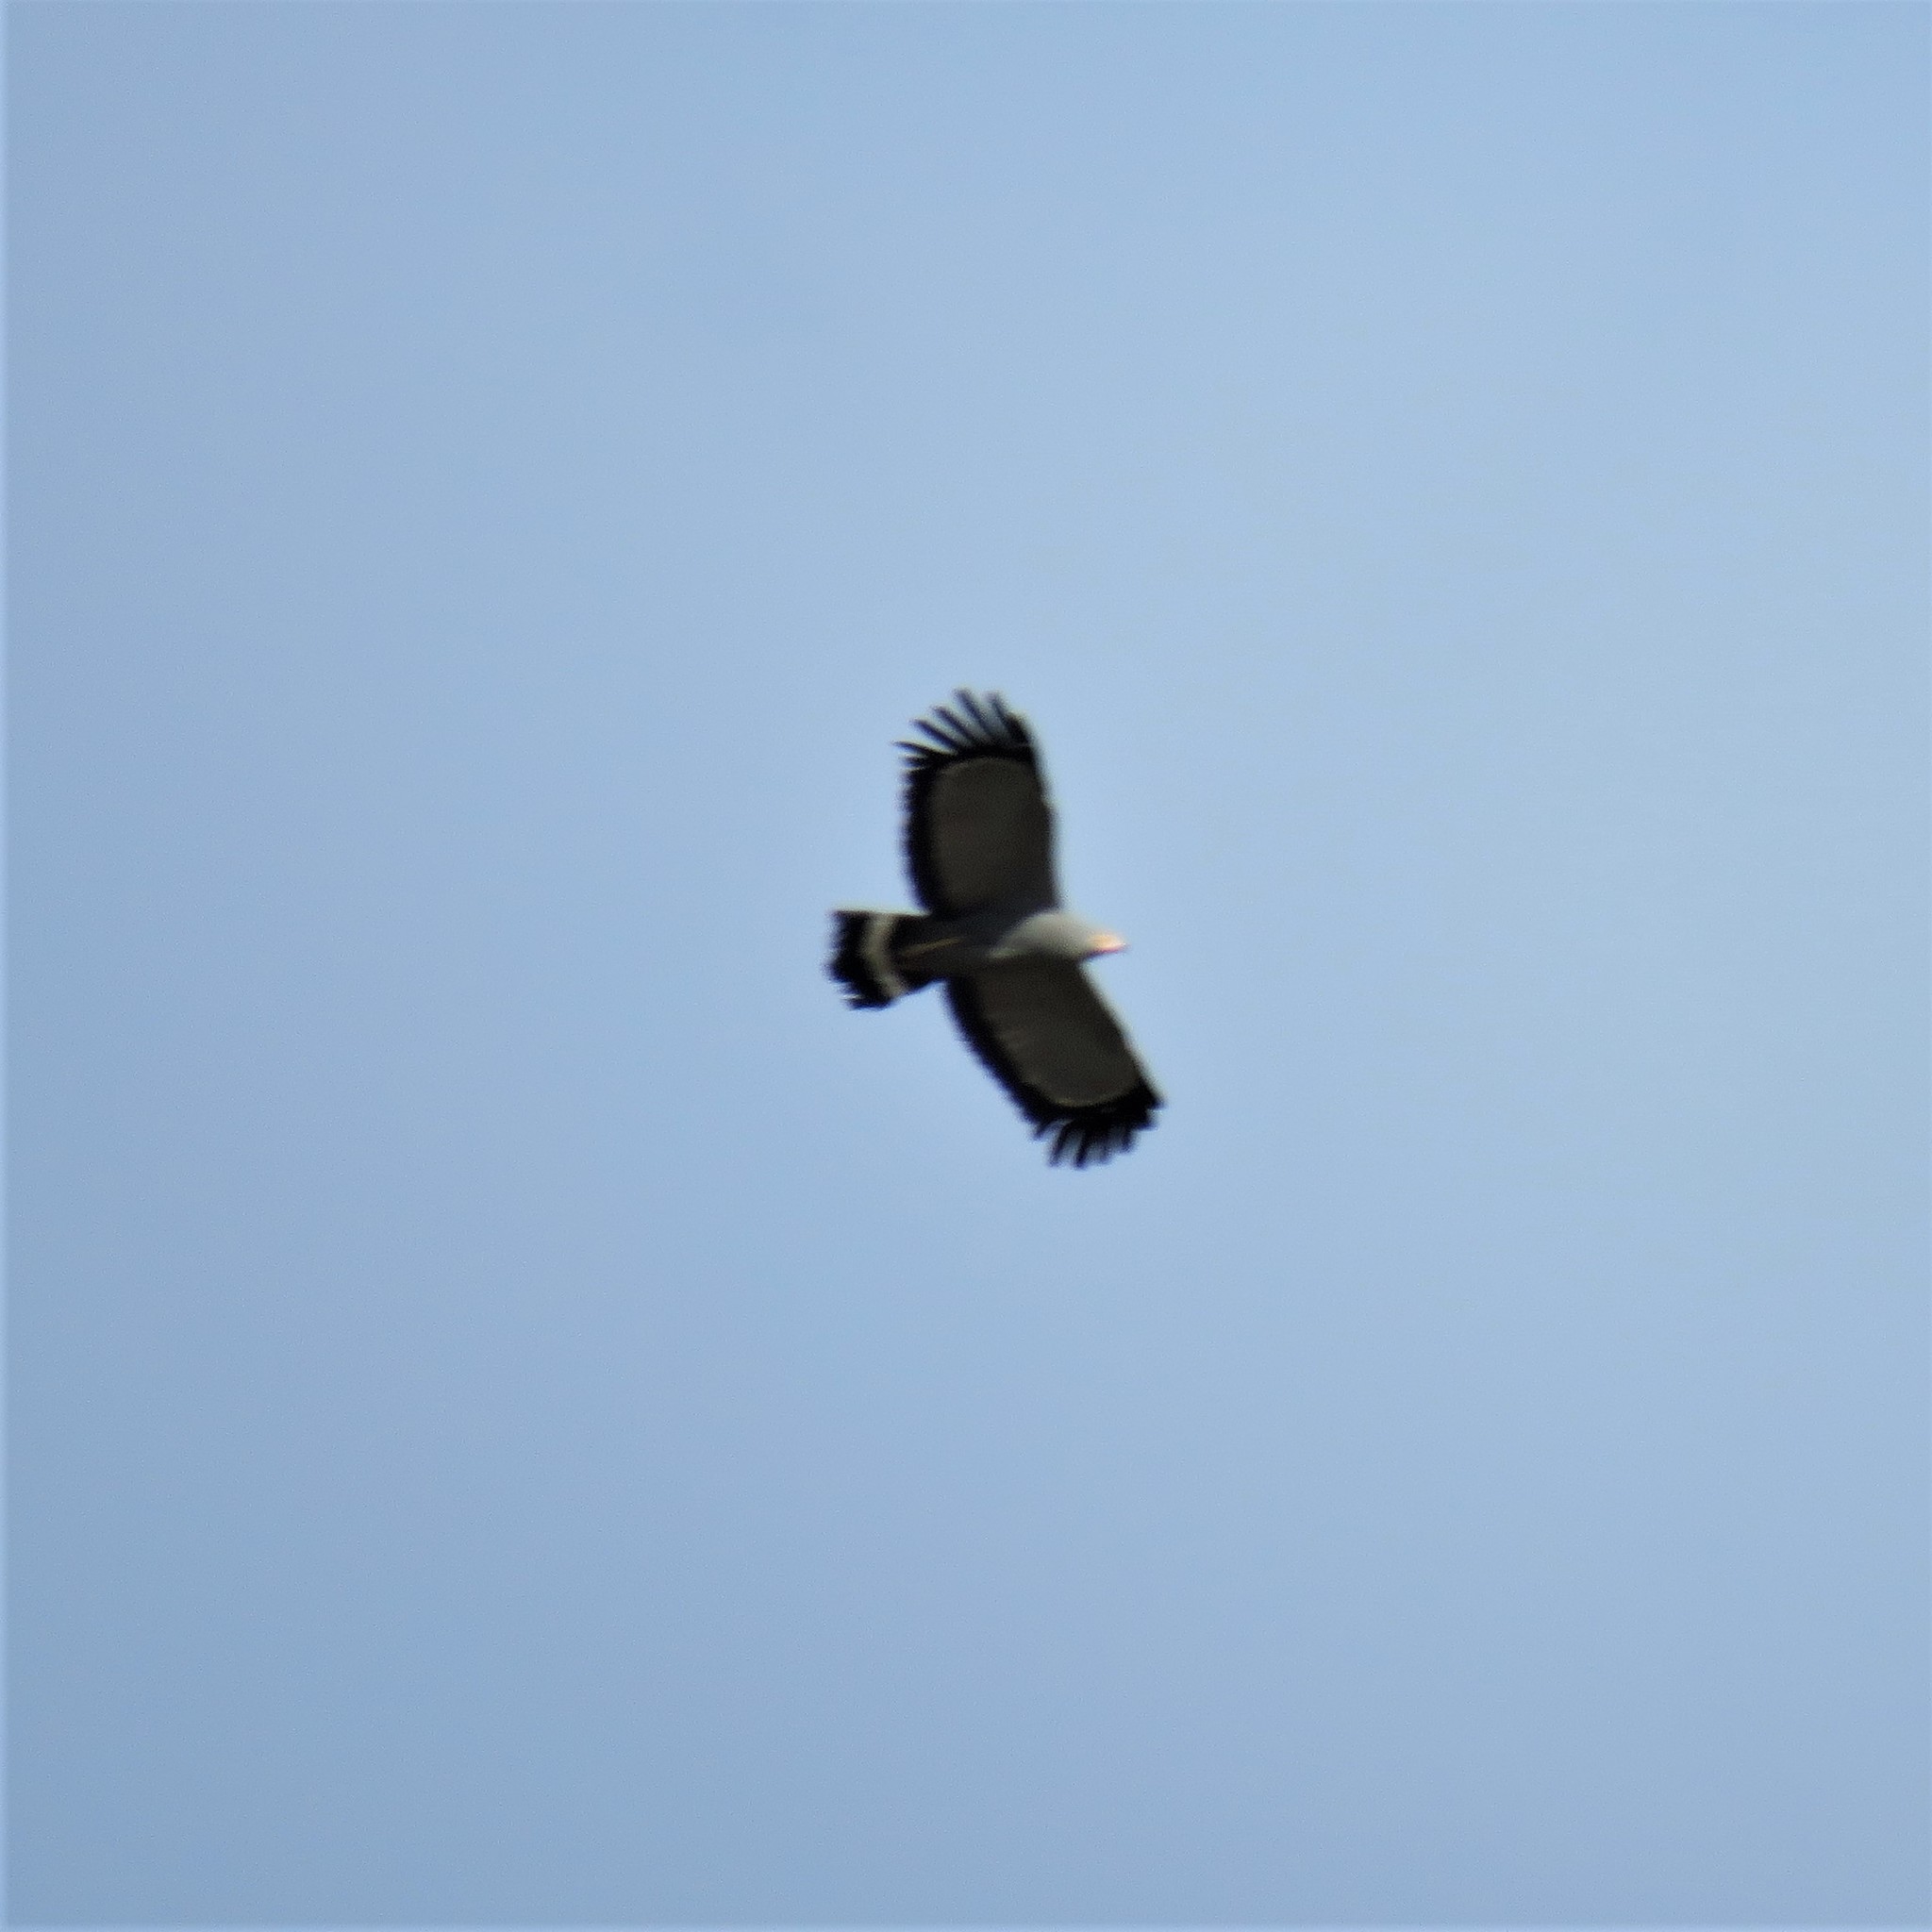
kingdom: Animalia
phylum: Chordata
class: Aves
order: Accipitriformes
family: Accipitridae
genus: Polyboroides
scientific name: Polyboroides typus
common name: African harrier-hawk
